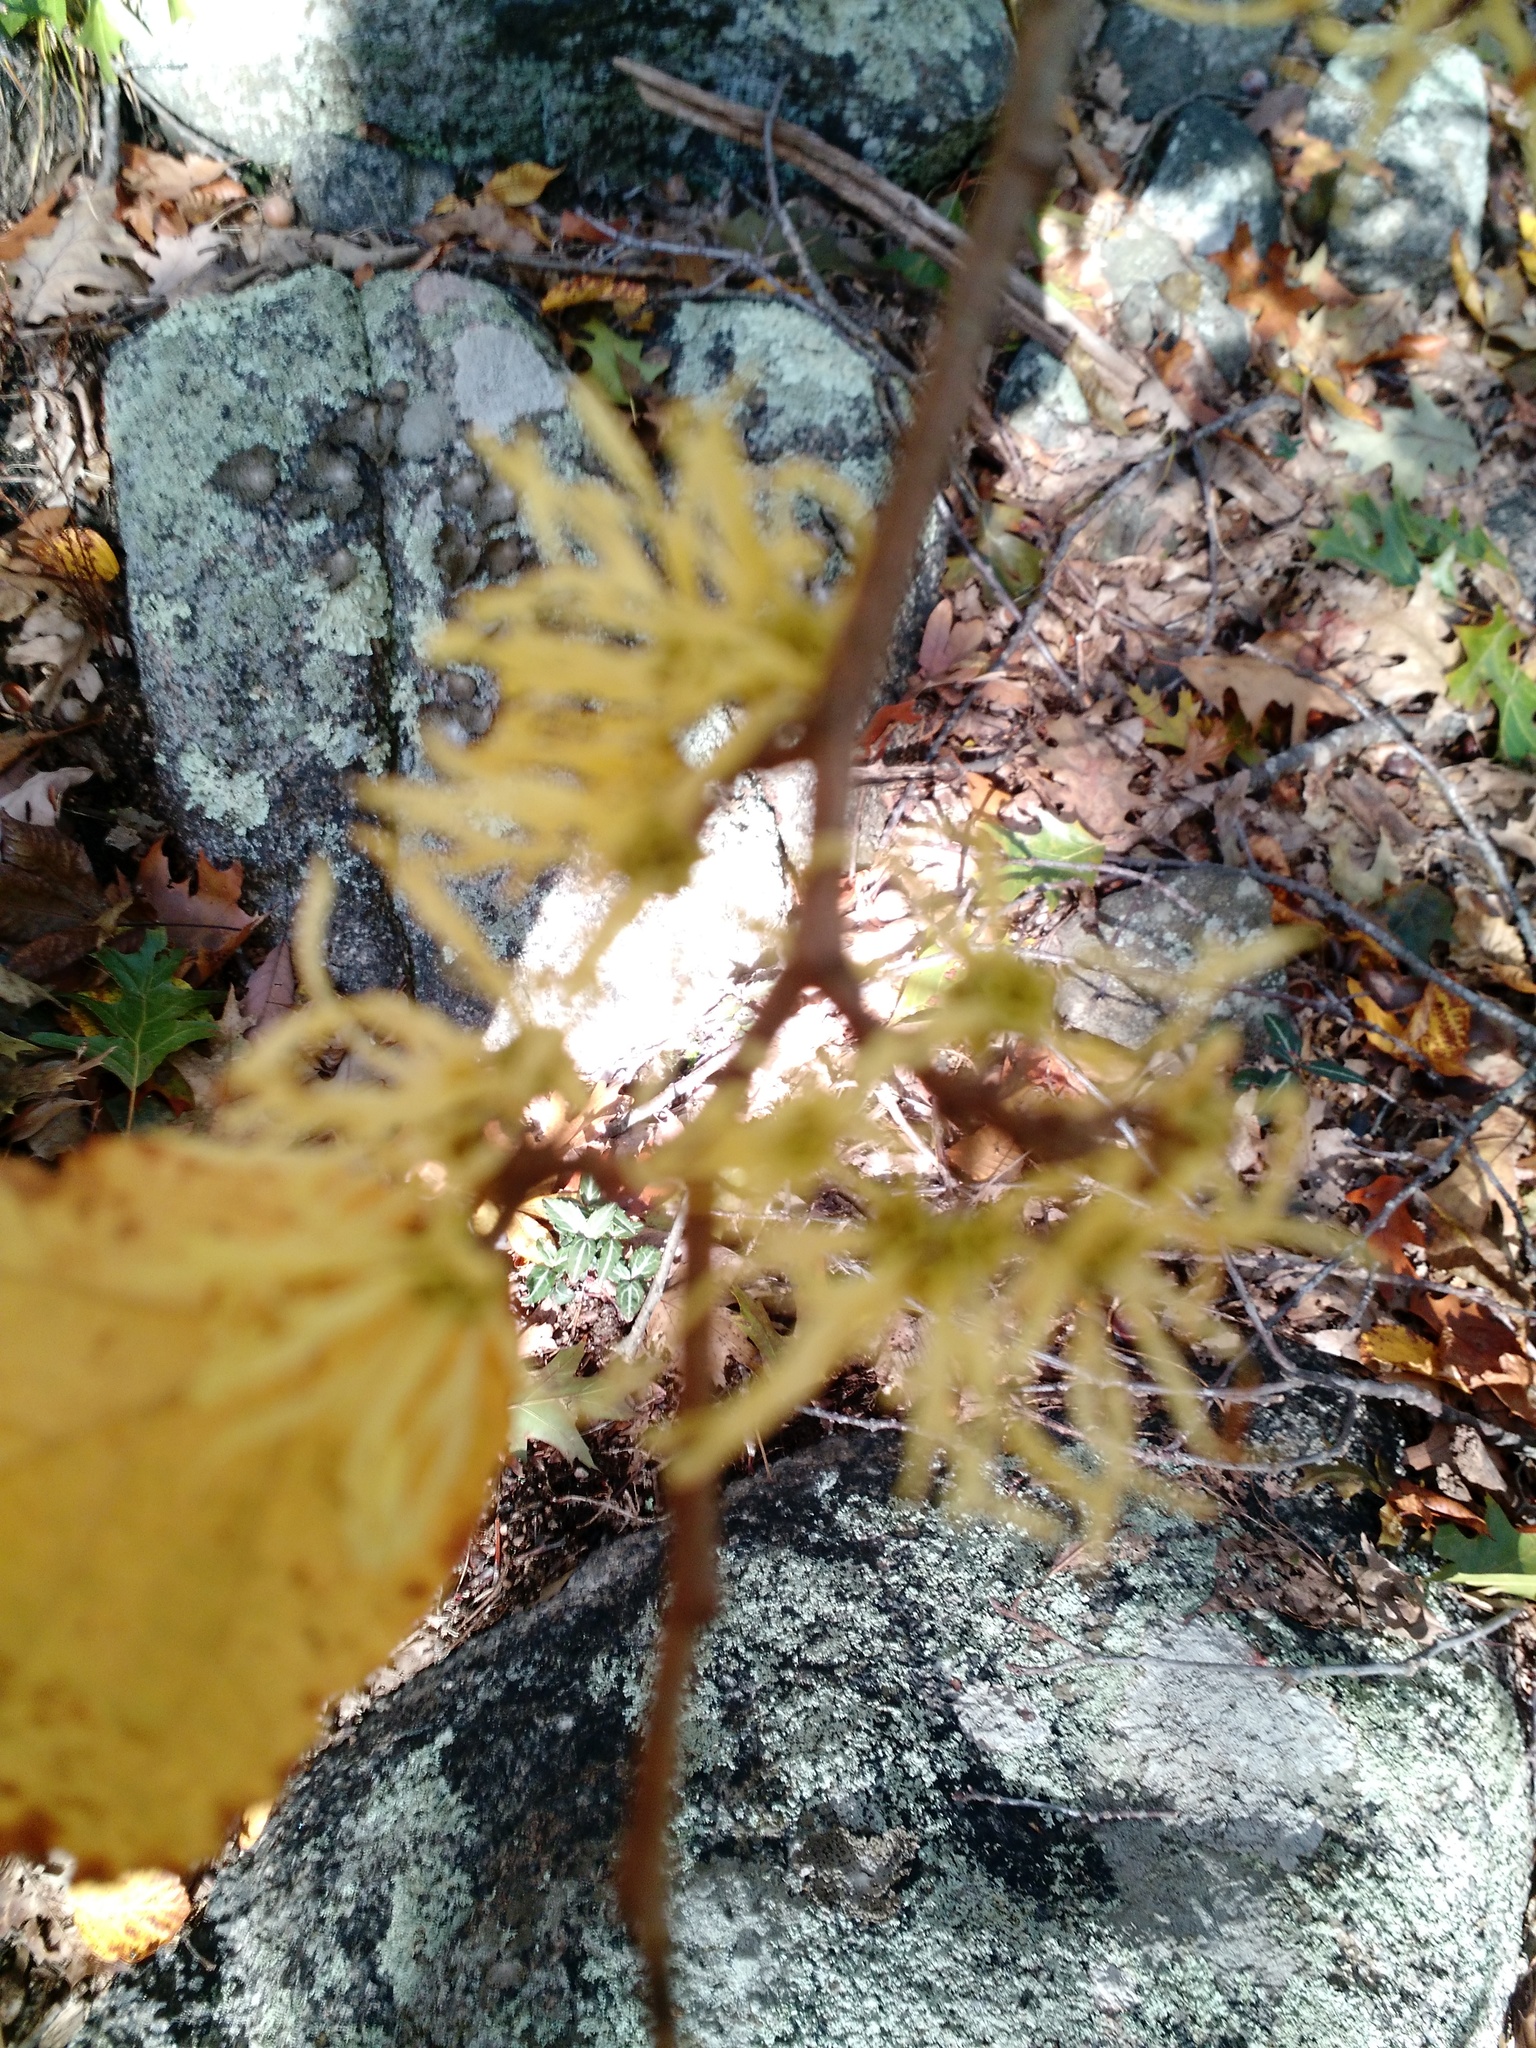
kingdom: Plantae
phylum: Tracheophyta
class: Magnoliopsida
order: Saxifragales
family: Hamamelidaceae
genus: Hamamelis
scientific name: Hamamelis virginiana
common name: Witch-hazel
